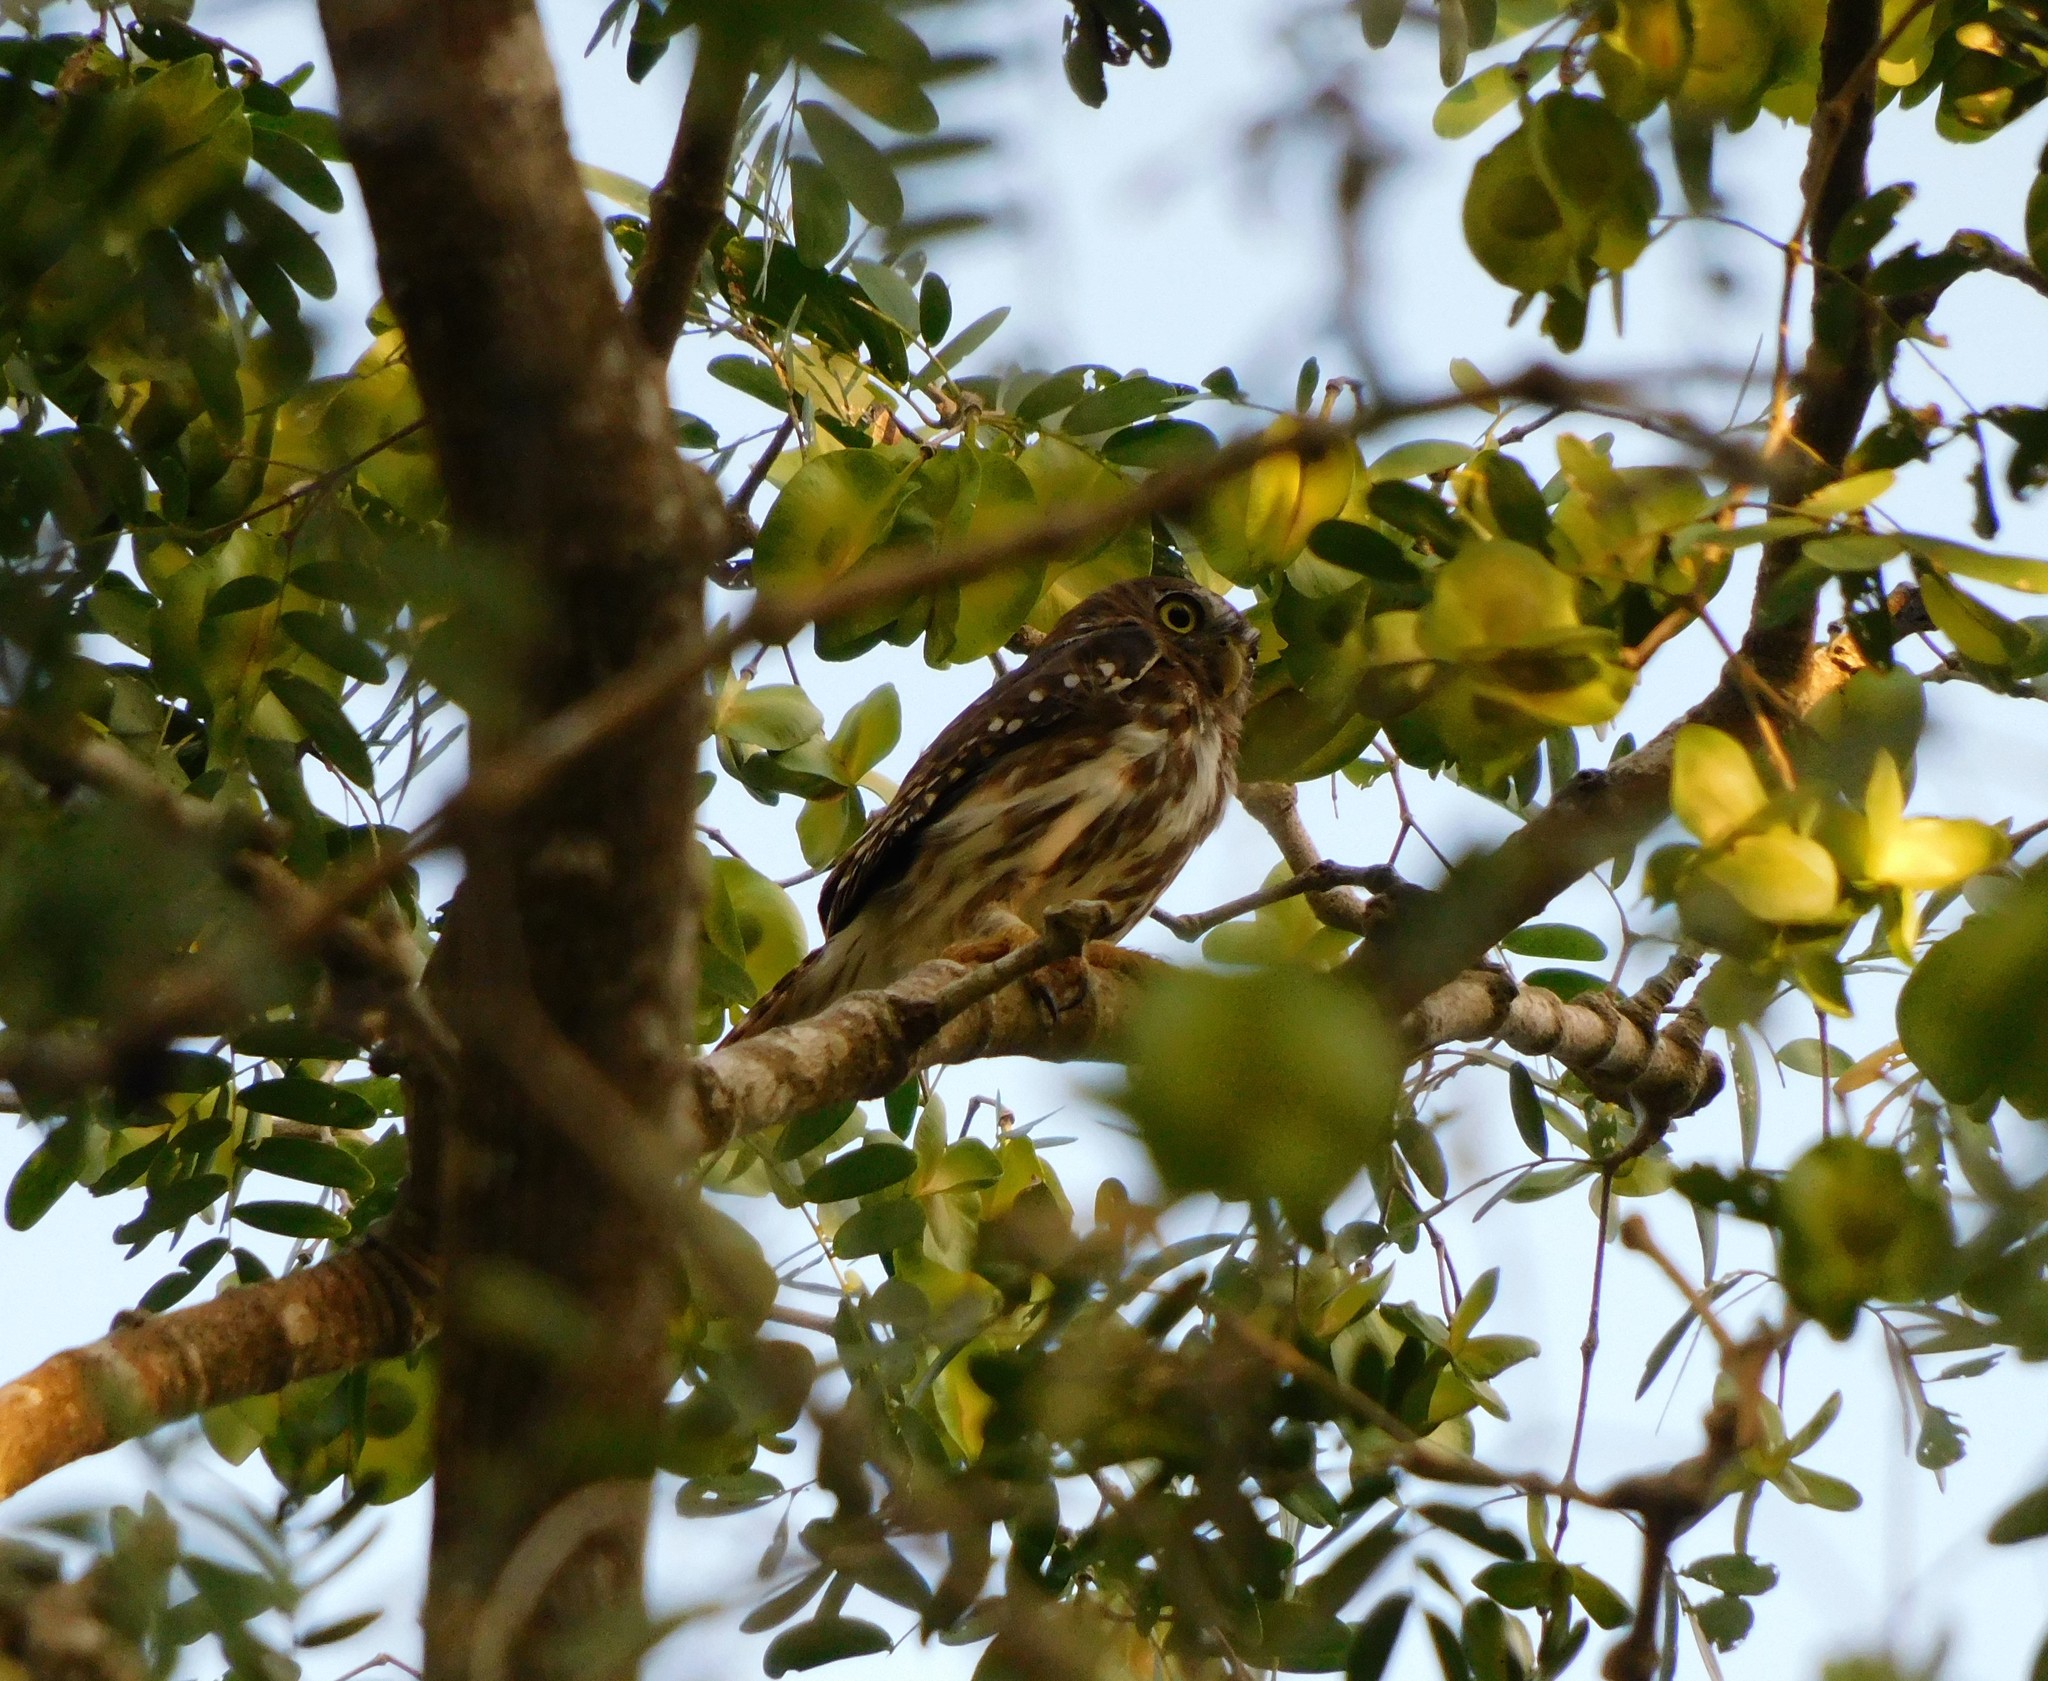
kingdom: Animalia
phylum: Chordata
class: Aves
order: Strigiformes
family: Strigidae
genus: Glaucidium
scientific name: Glaucidium brasilianum
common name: Ferruginous pygmy-owl
